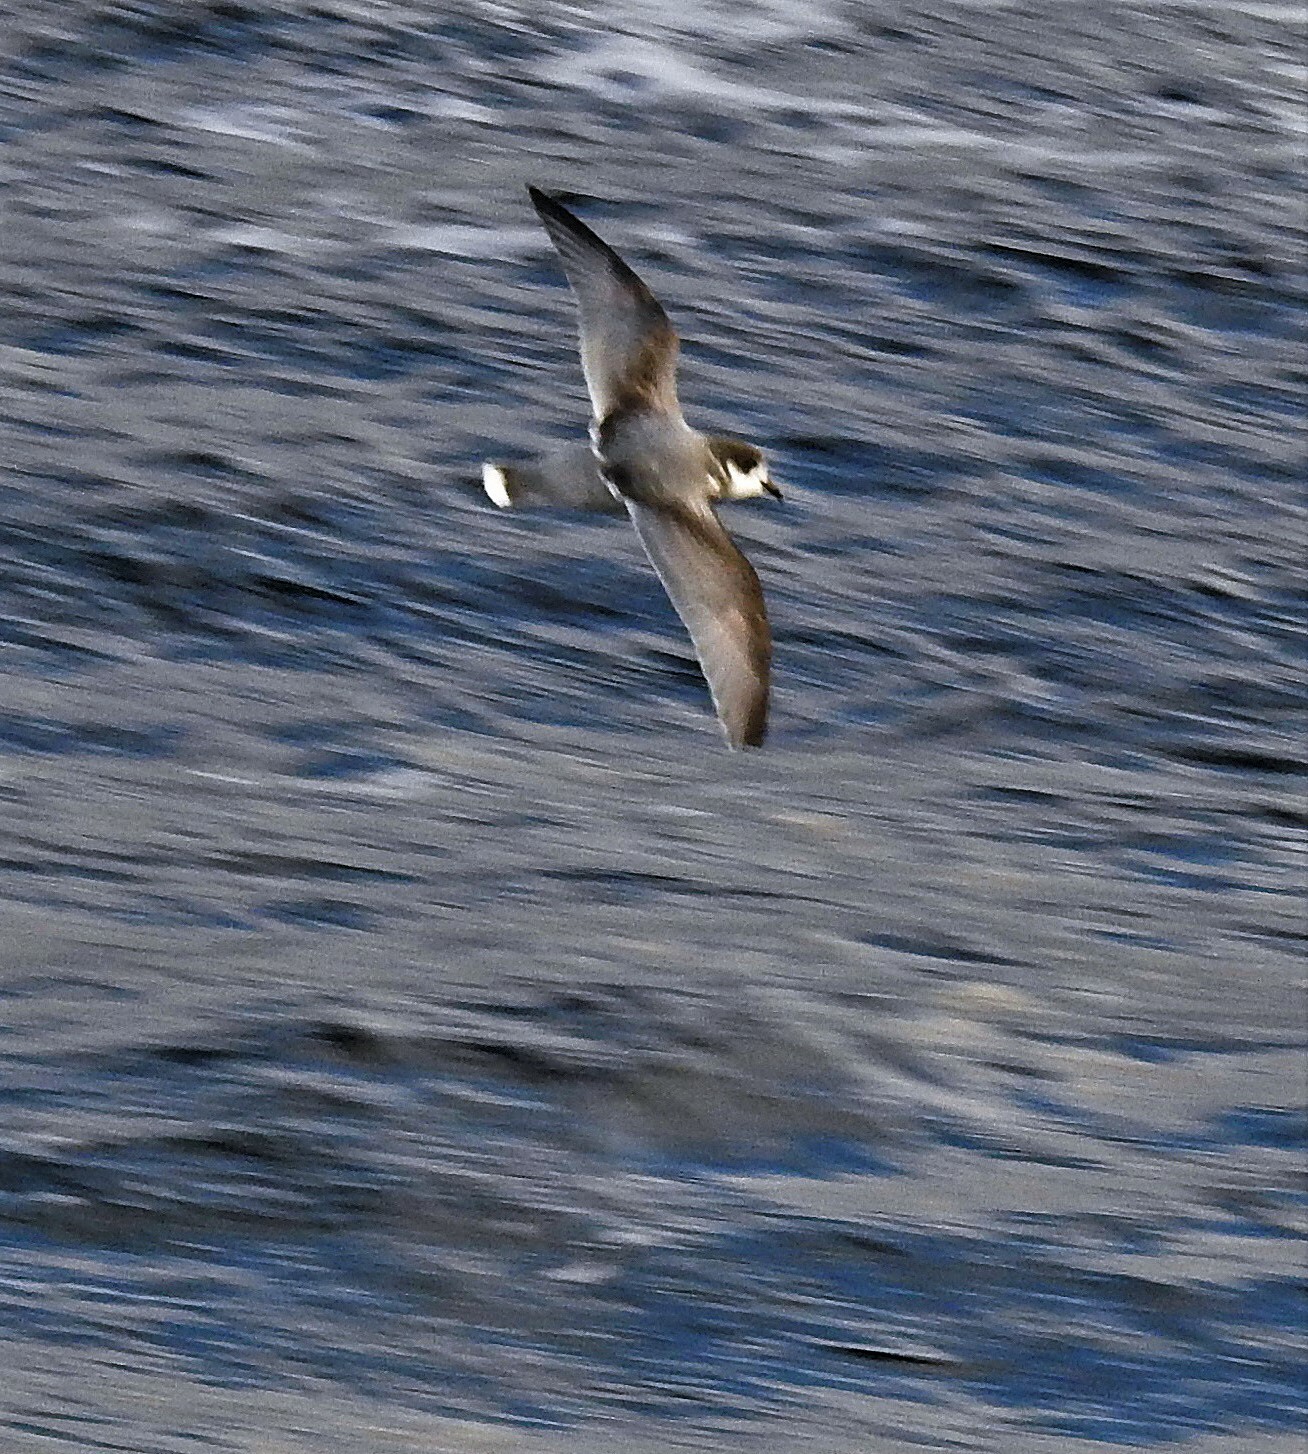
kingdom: Animalia
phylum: Chordata
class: Aves
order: Procellariiformes
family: Procellariidae
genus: Halobaena
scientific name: Halobaena caerulea
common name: Blue petrel
